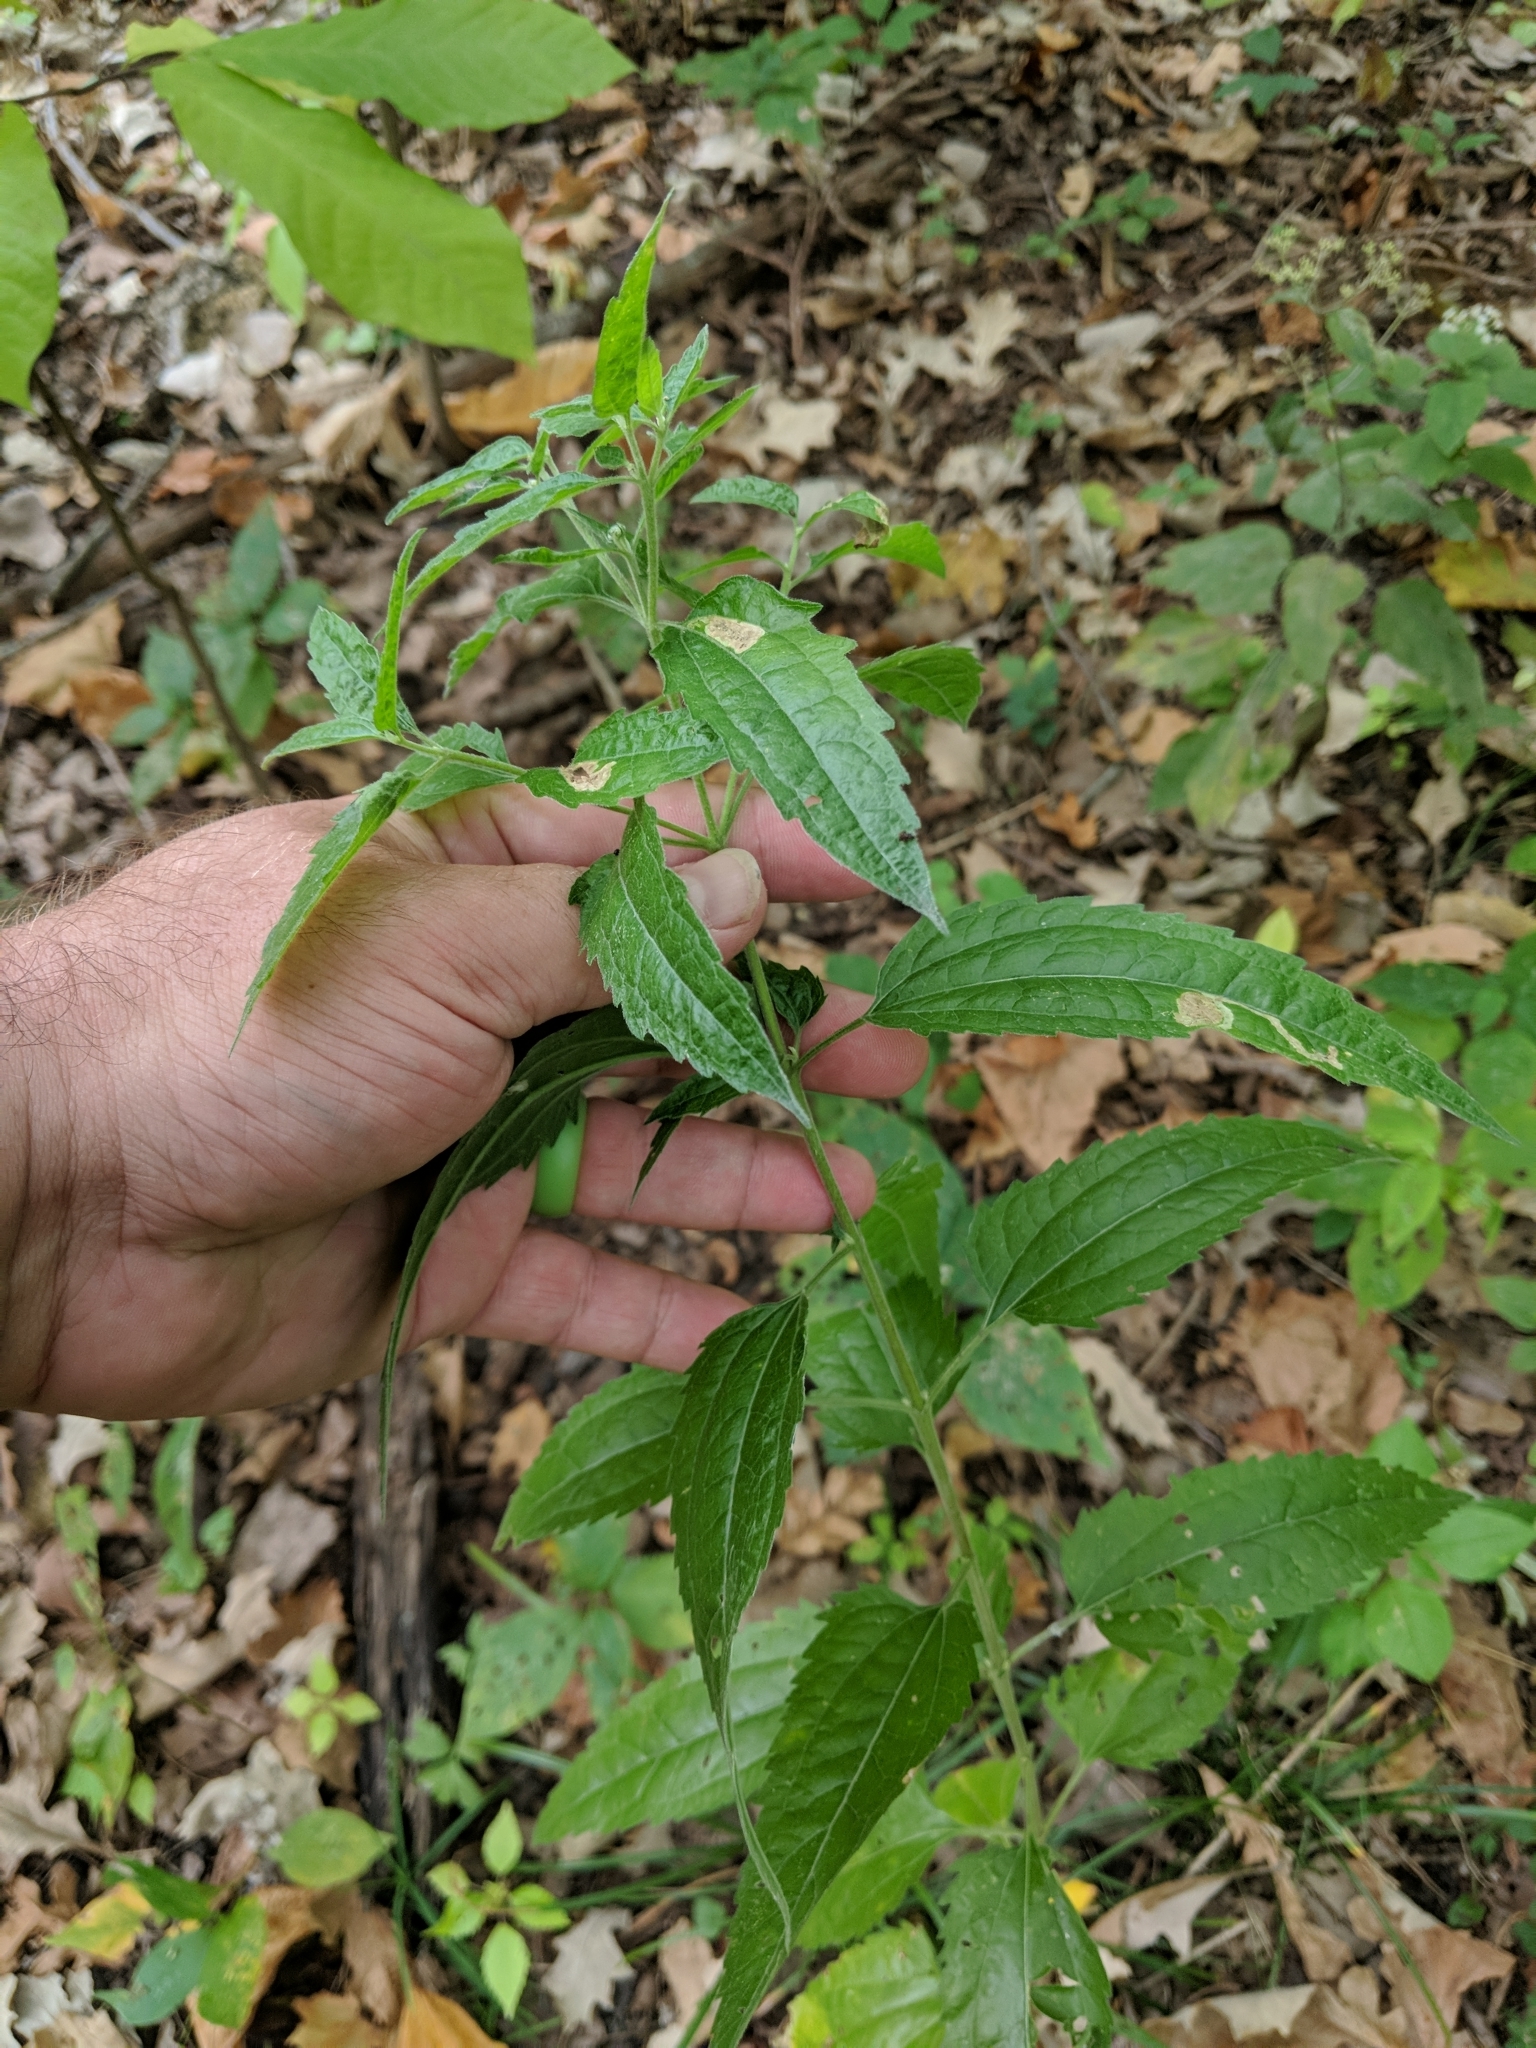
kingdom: Plantae
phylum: Tracheophyta
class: Magnoliopsida
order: Asterales
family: Asteraceae
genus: Eupatorium
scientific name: Eupatorium serotinum
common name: Late boneset
